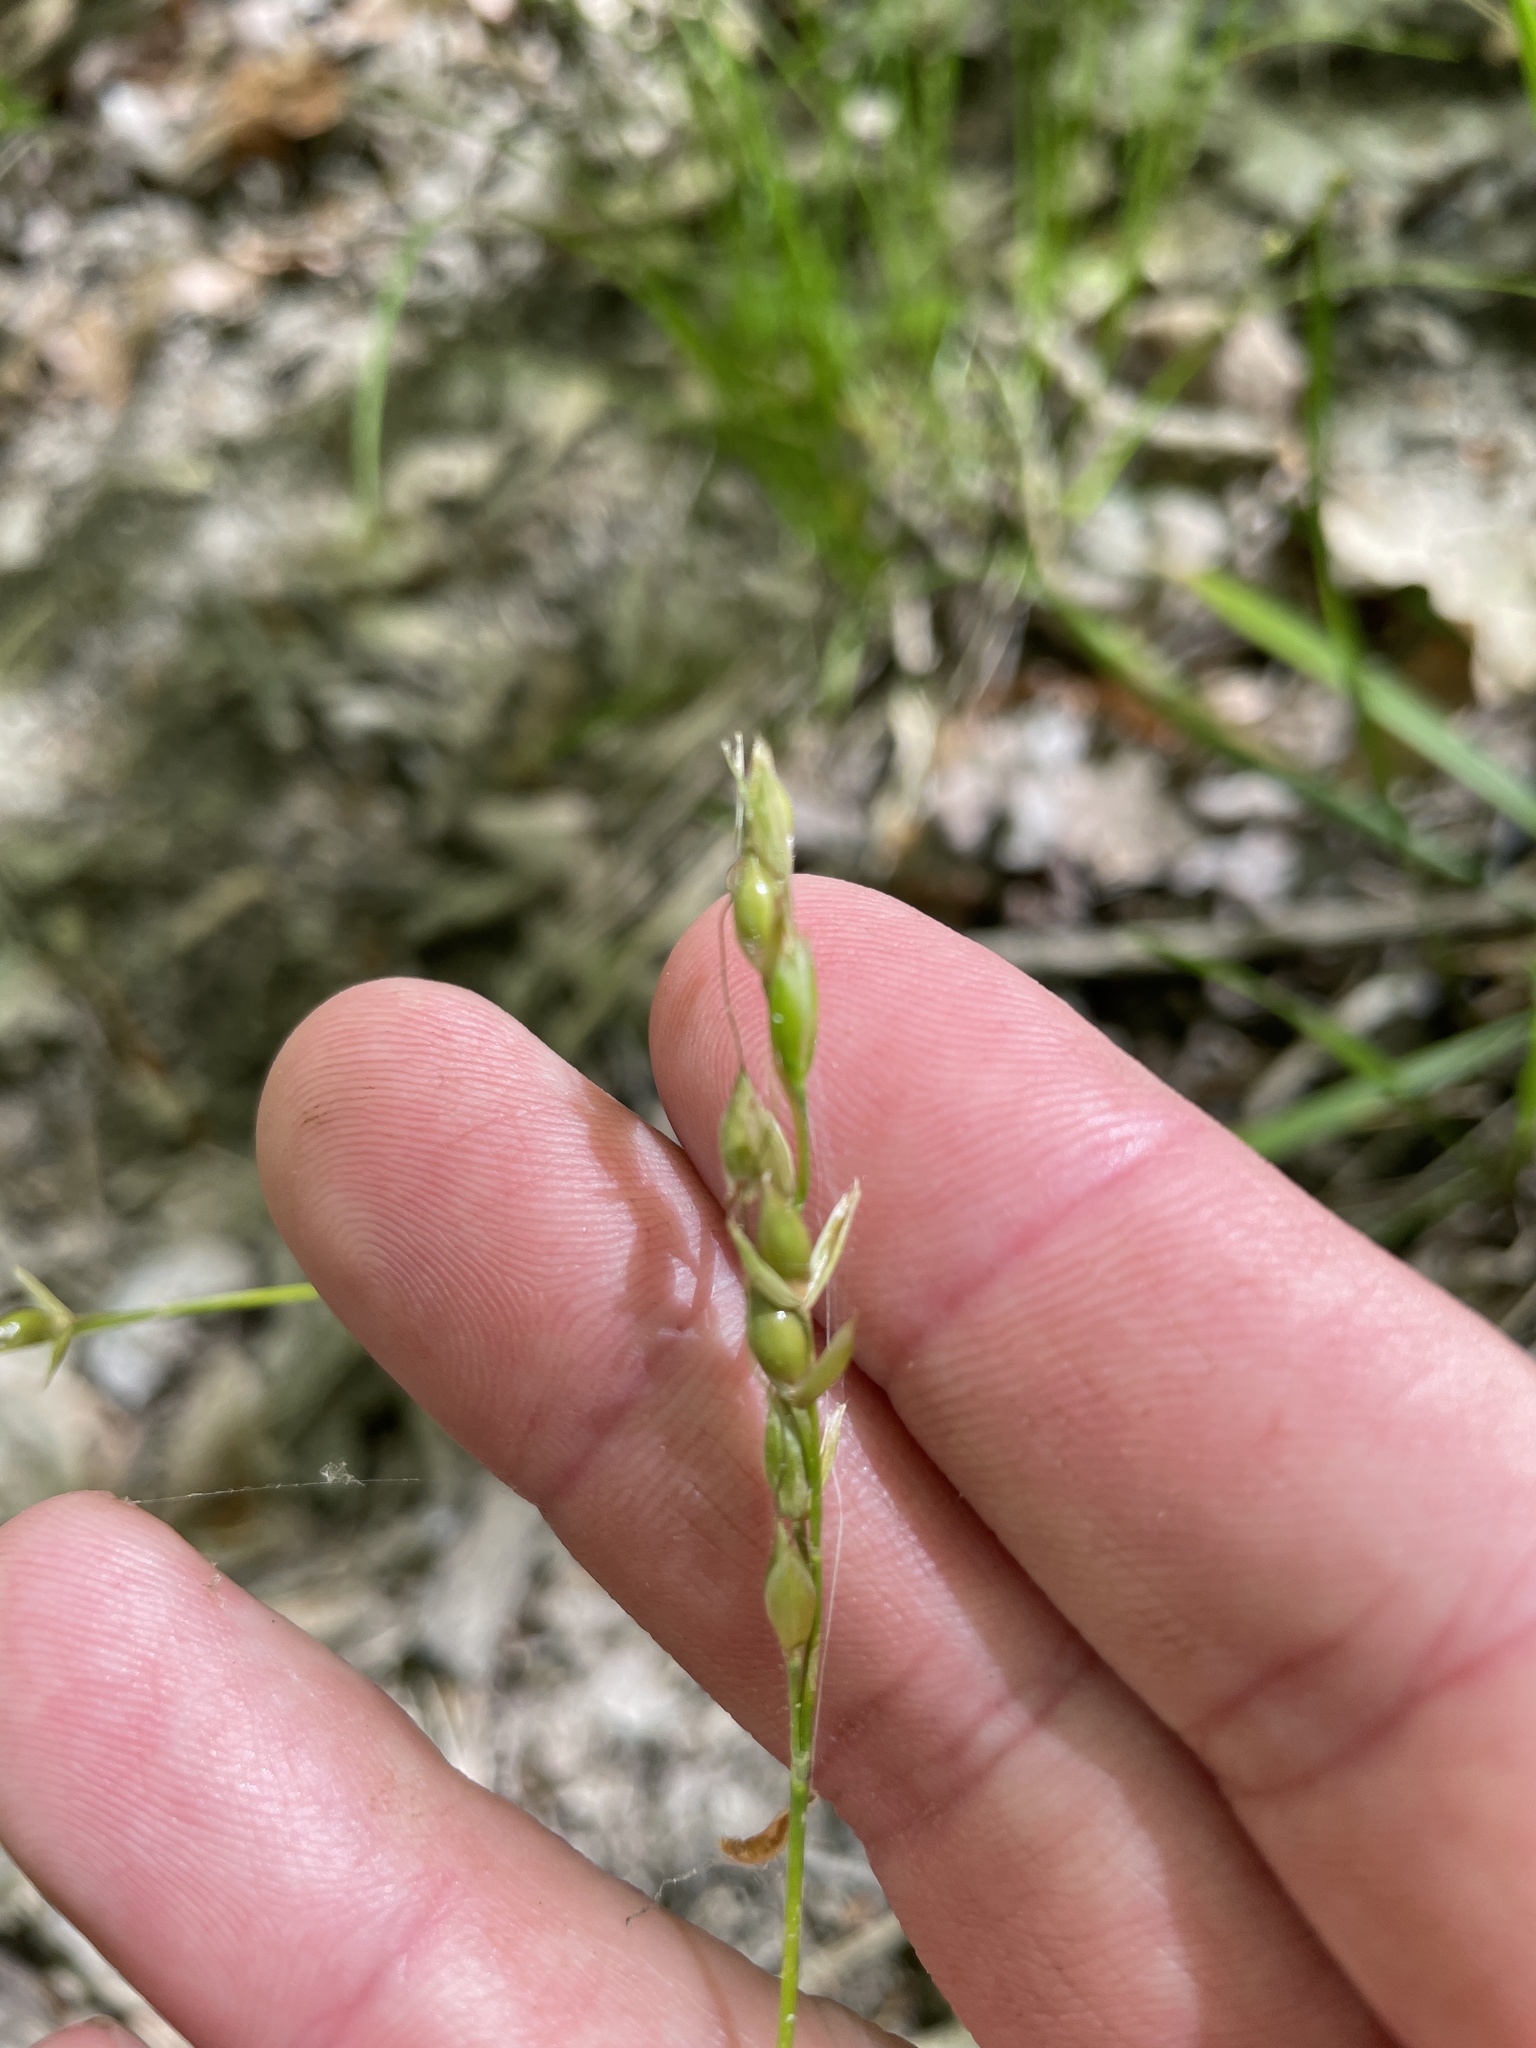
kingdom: Plantae
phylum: Tracheophyta
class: Liliopsida
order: Poales
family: Poaceae
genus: Oryzopsis
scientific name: Oryzopsis asperifolia
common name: Rough-leaved mountain rice
